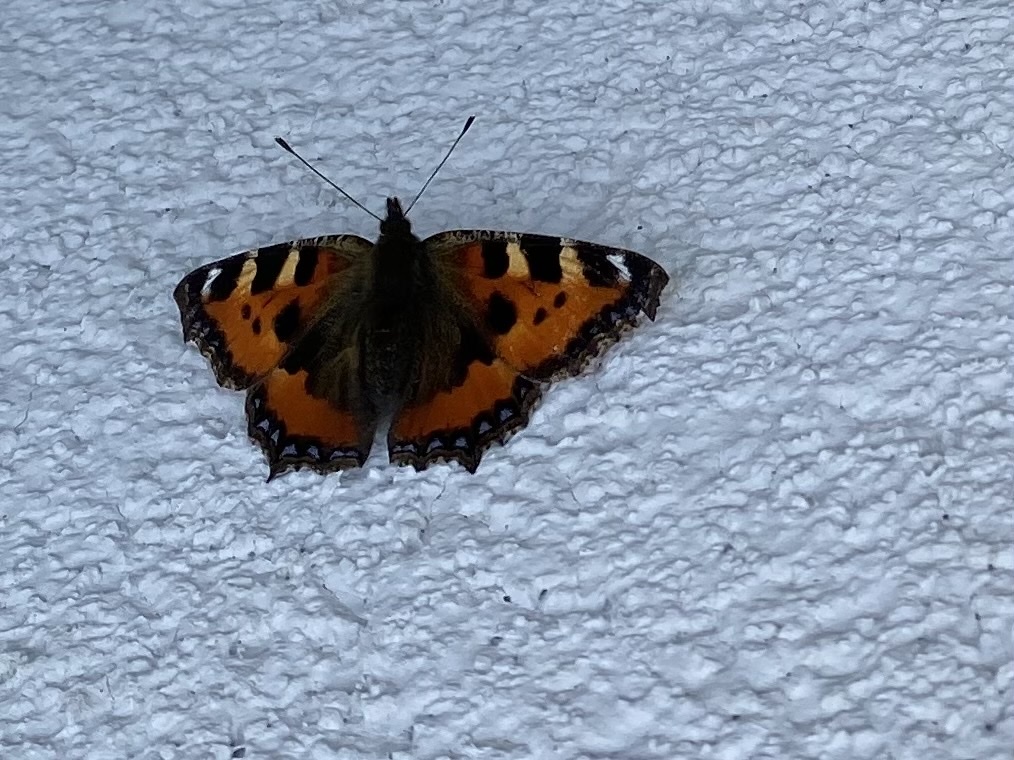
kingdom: Animalia
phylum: Arthropoda
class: Insecta
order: Lepidoptera
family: Nymphalidae
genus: Aglais
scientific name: Aglais urticae
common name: Small tortoiseshell
